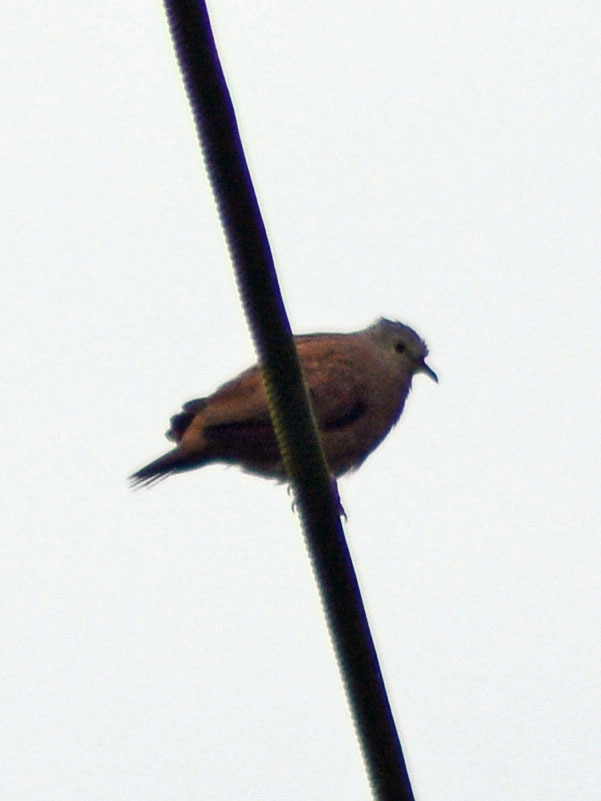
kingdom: Animalia
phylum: Chordata
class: Aves
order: Columbiformes
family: Columbidae
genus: Columbina
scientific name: Columbina talpacoti
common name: Ruddy ground dove
